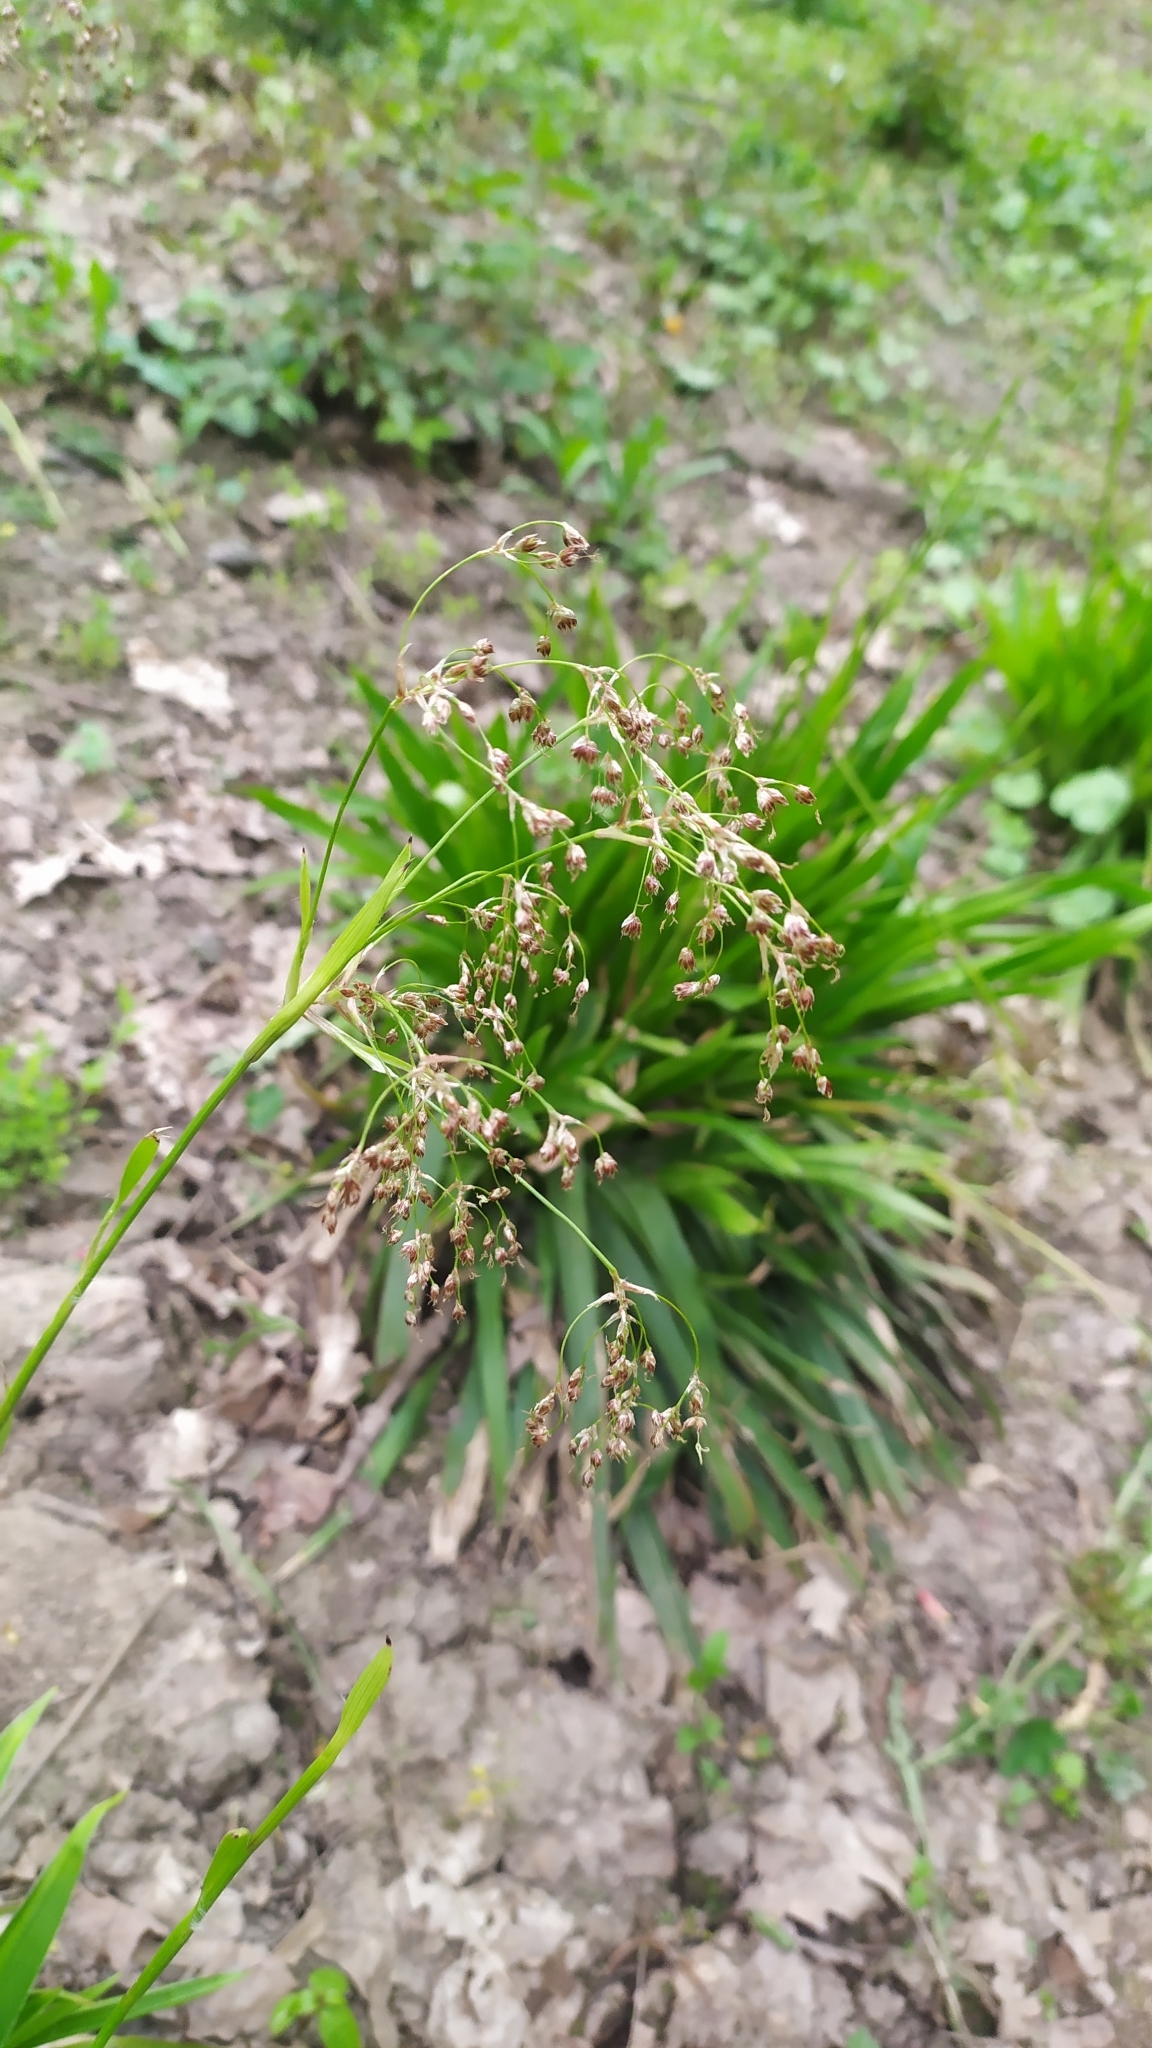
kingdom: Plantae
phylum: Tracheophyta
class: Liliopsida
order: Poales
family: Juncaceae
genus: Luzula
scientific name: Luzula luzuloides
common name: White wood-rush
